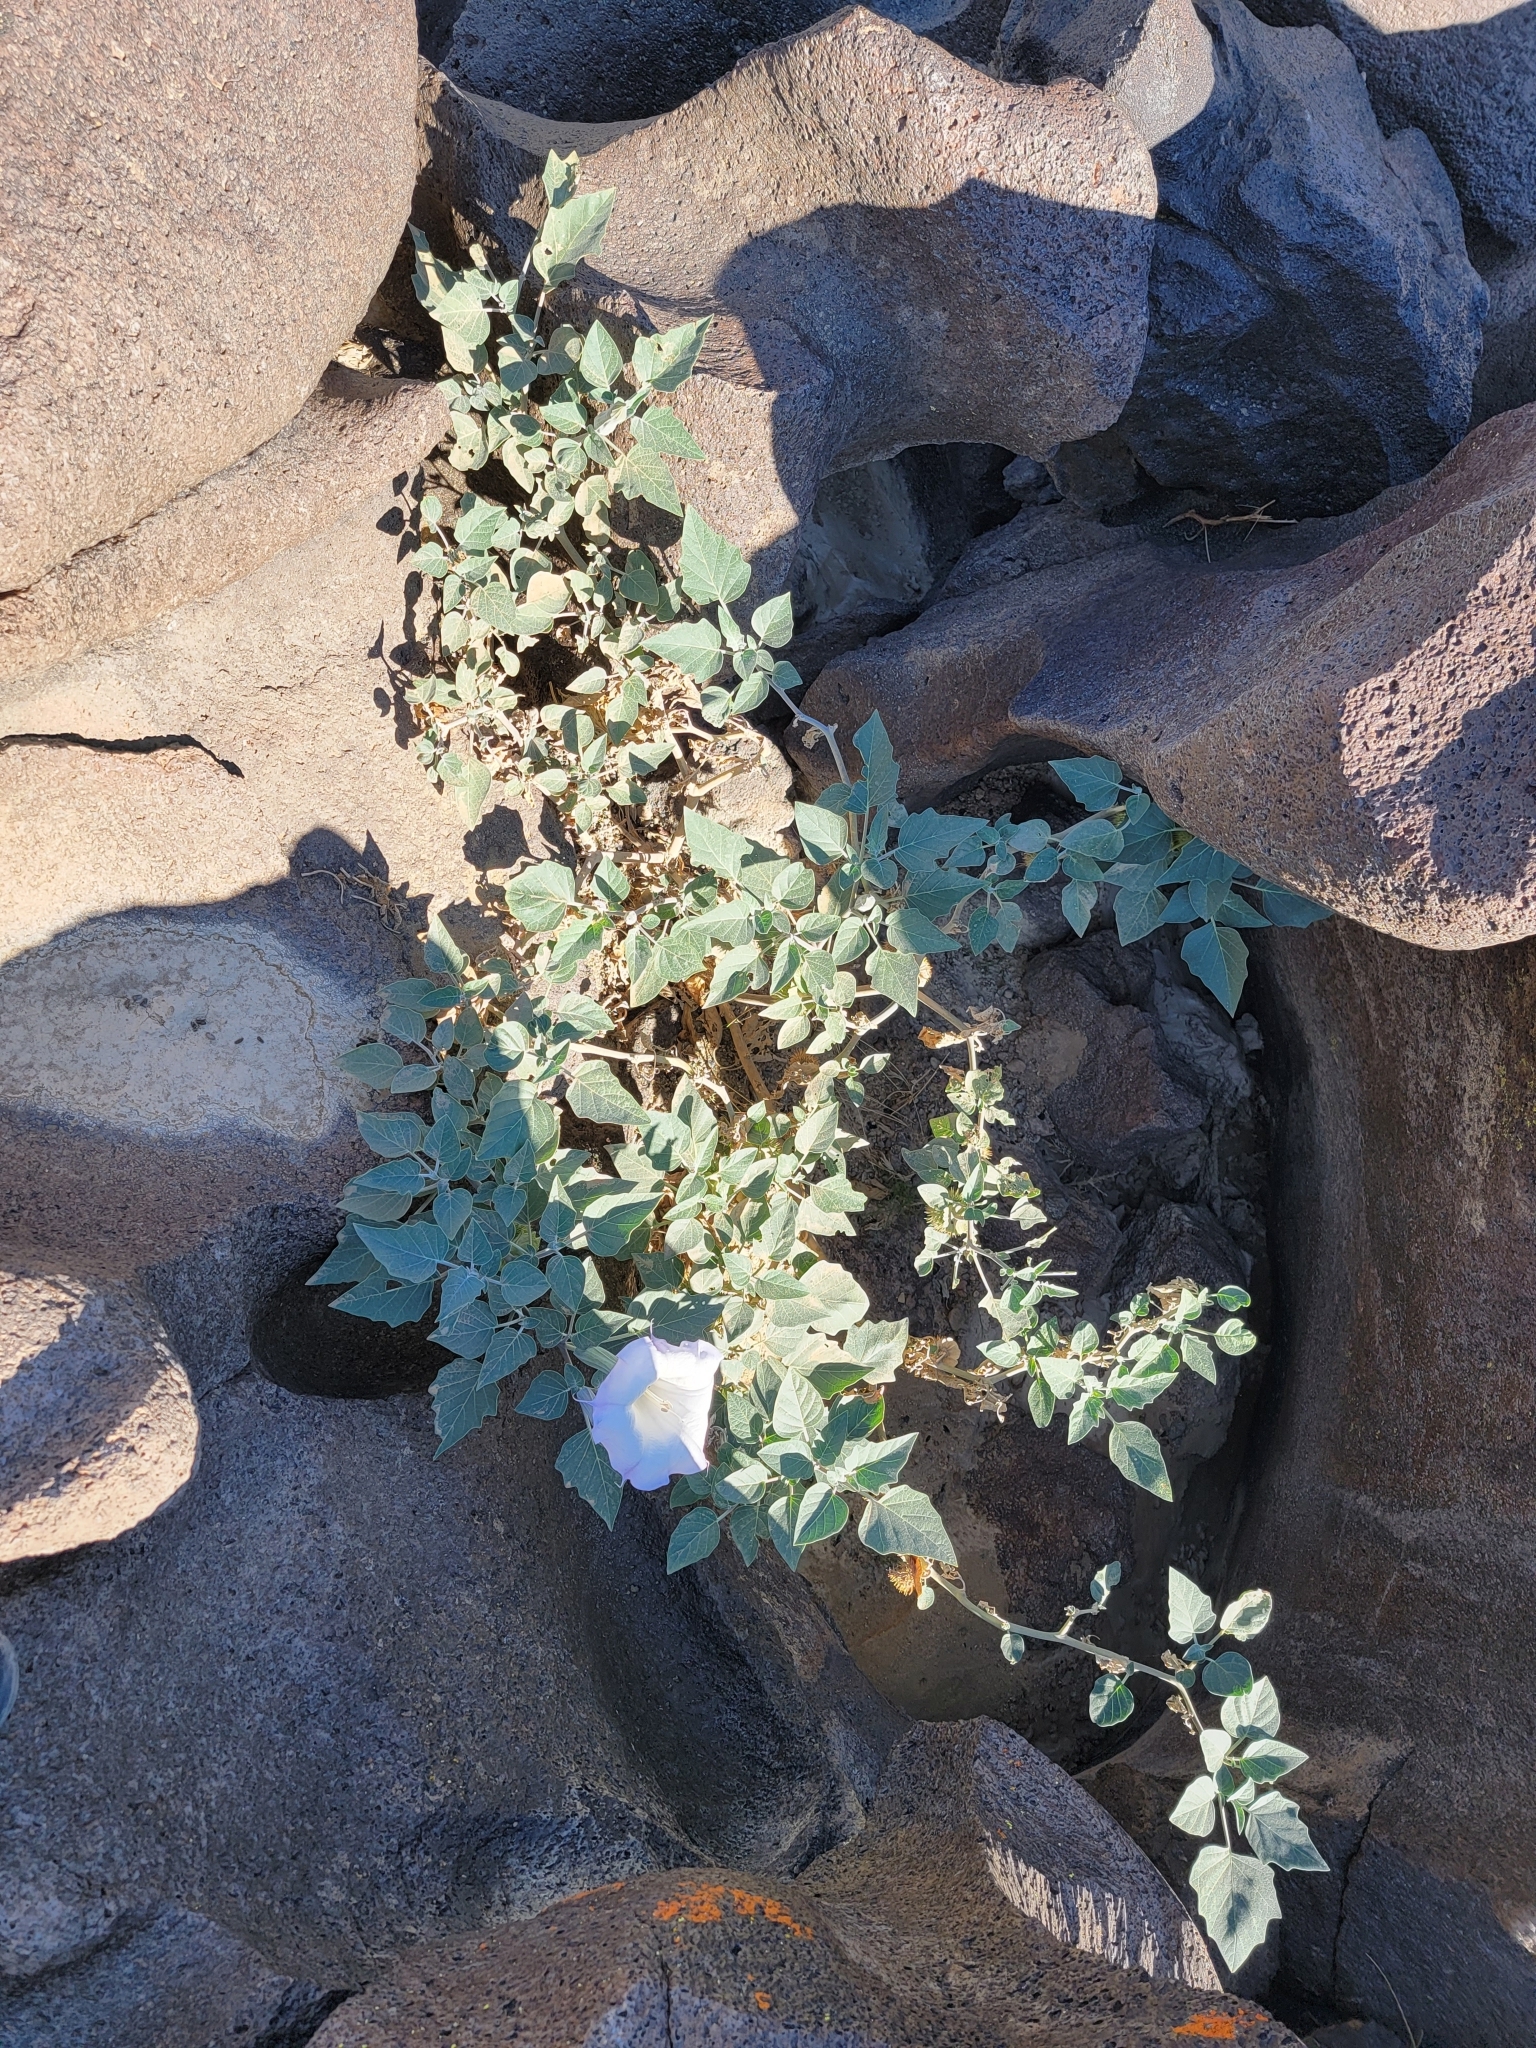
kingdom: Plantae
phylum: Tracheophyta
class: Magnoliopsida
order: Solanales
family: Solanaceae
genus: Datura
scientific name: Datura wrightii
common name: Sacred thorn-apple
